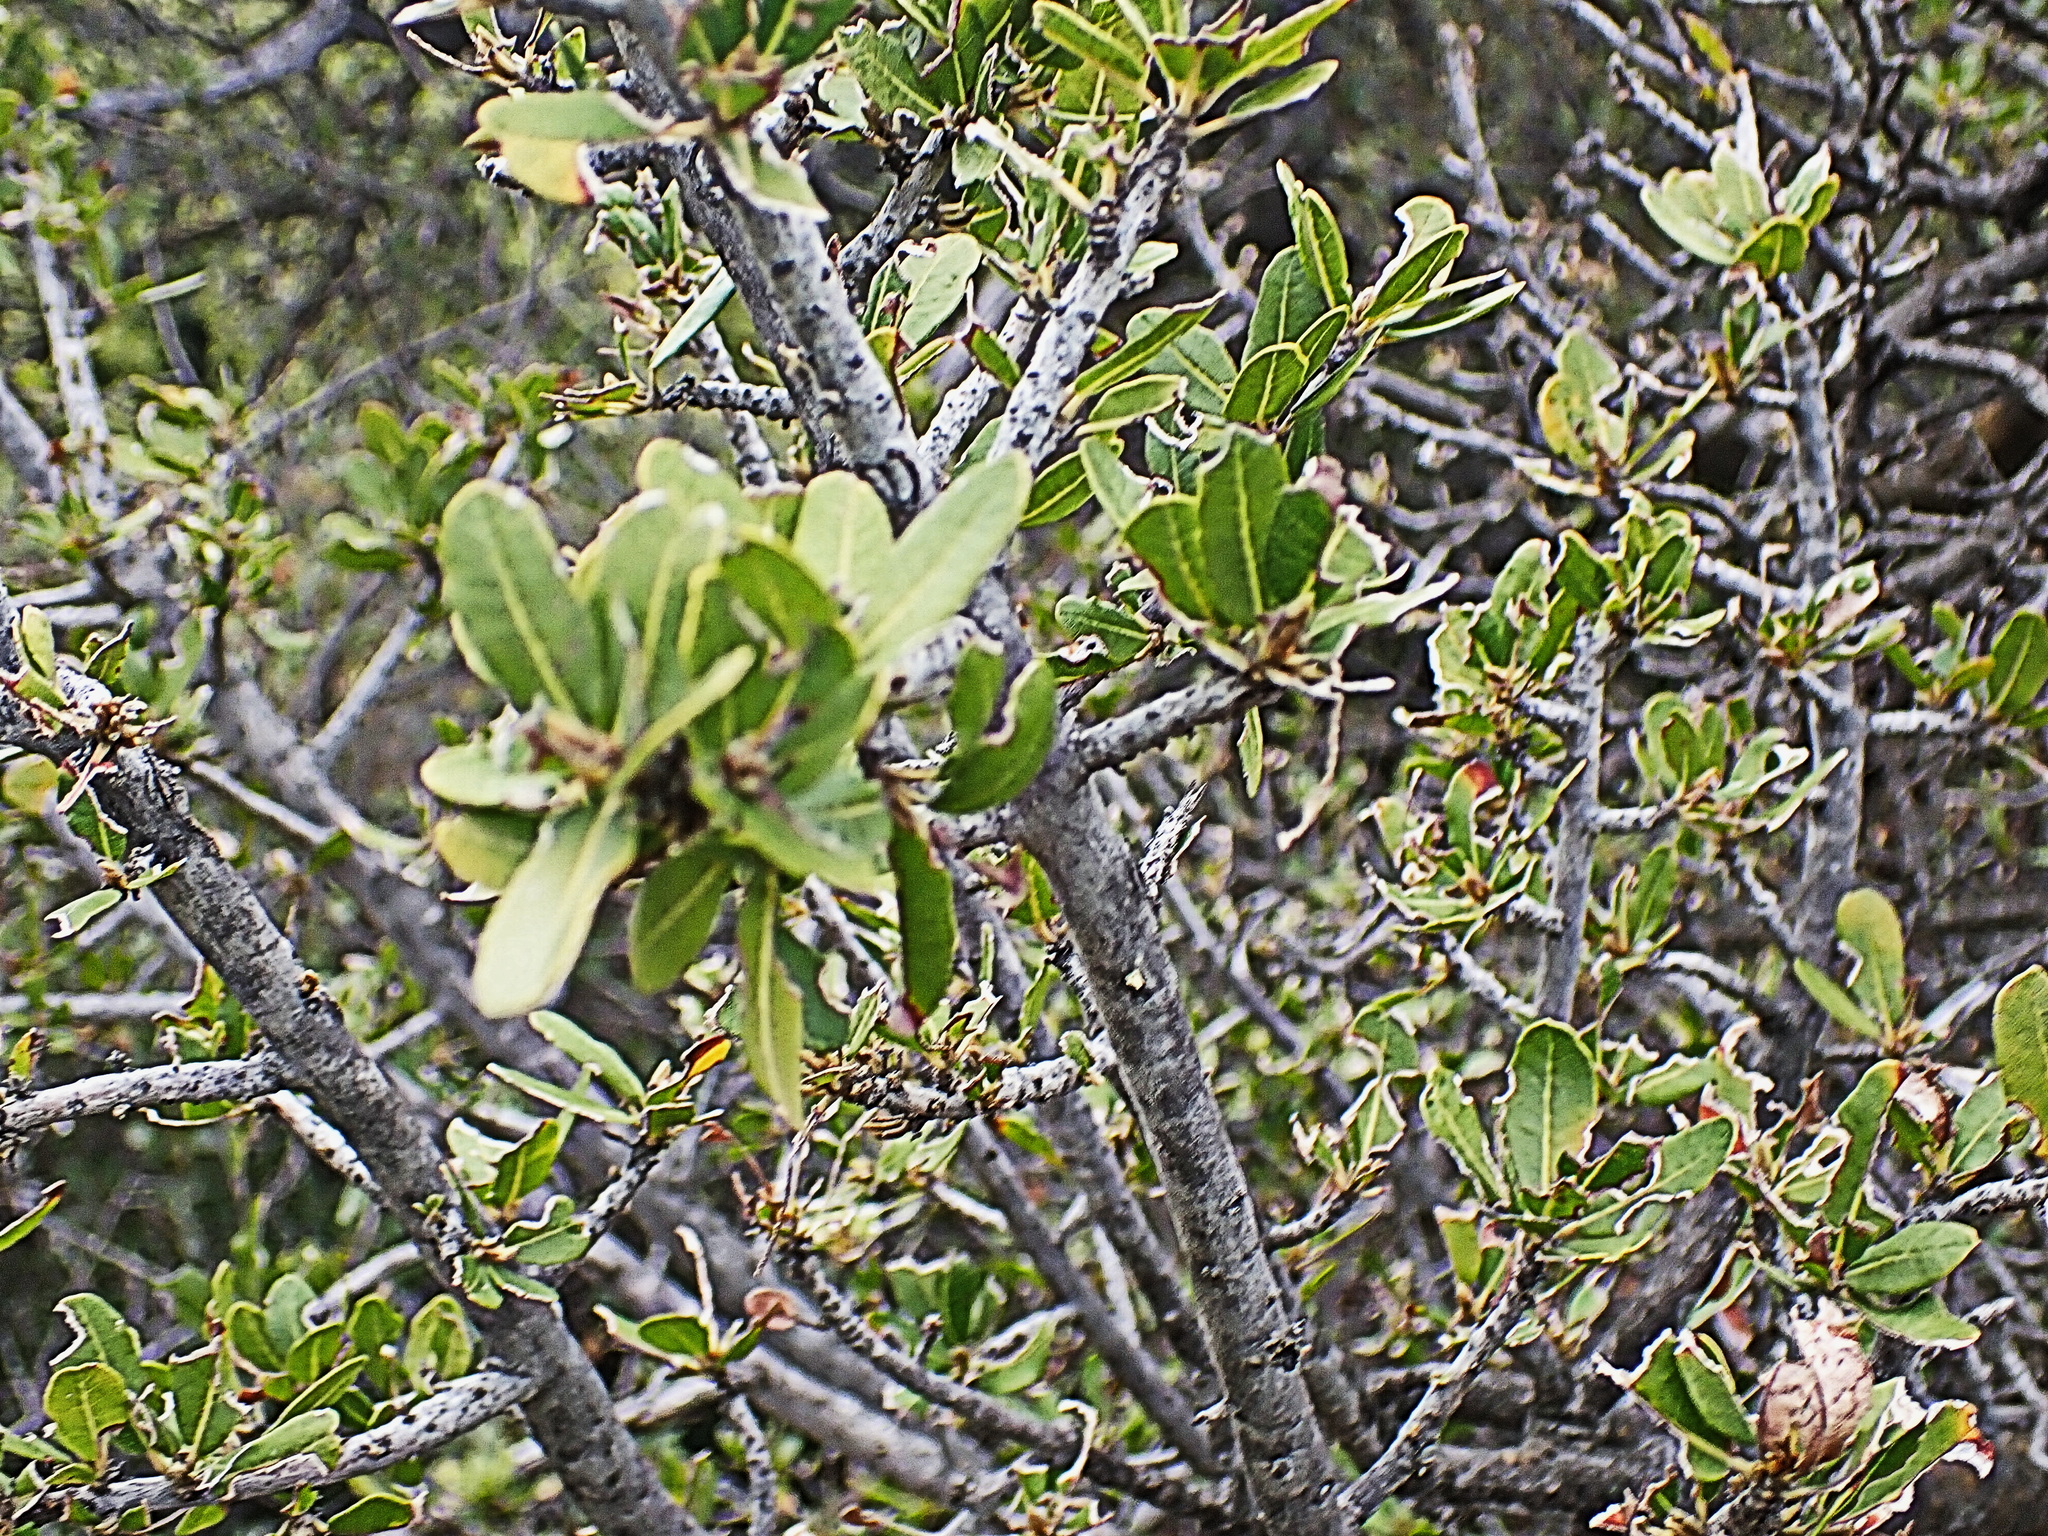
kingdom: Plantae
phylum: Tracheophyta
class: Magnoliopsida
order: Sapindales
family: Sapindaceae
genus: Pappea
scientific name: Pappea capensis
